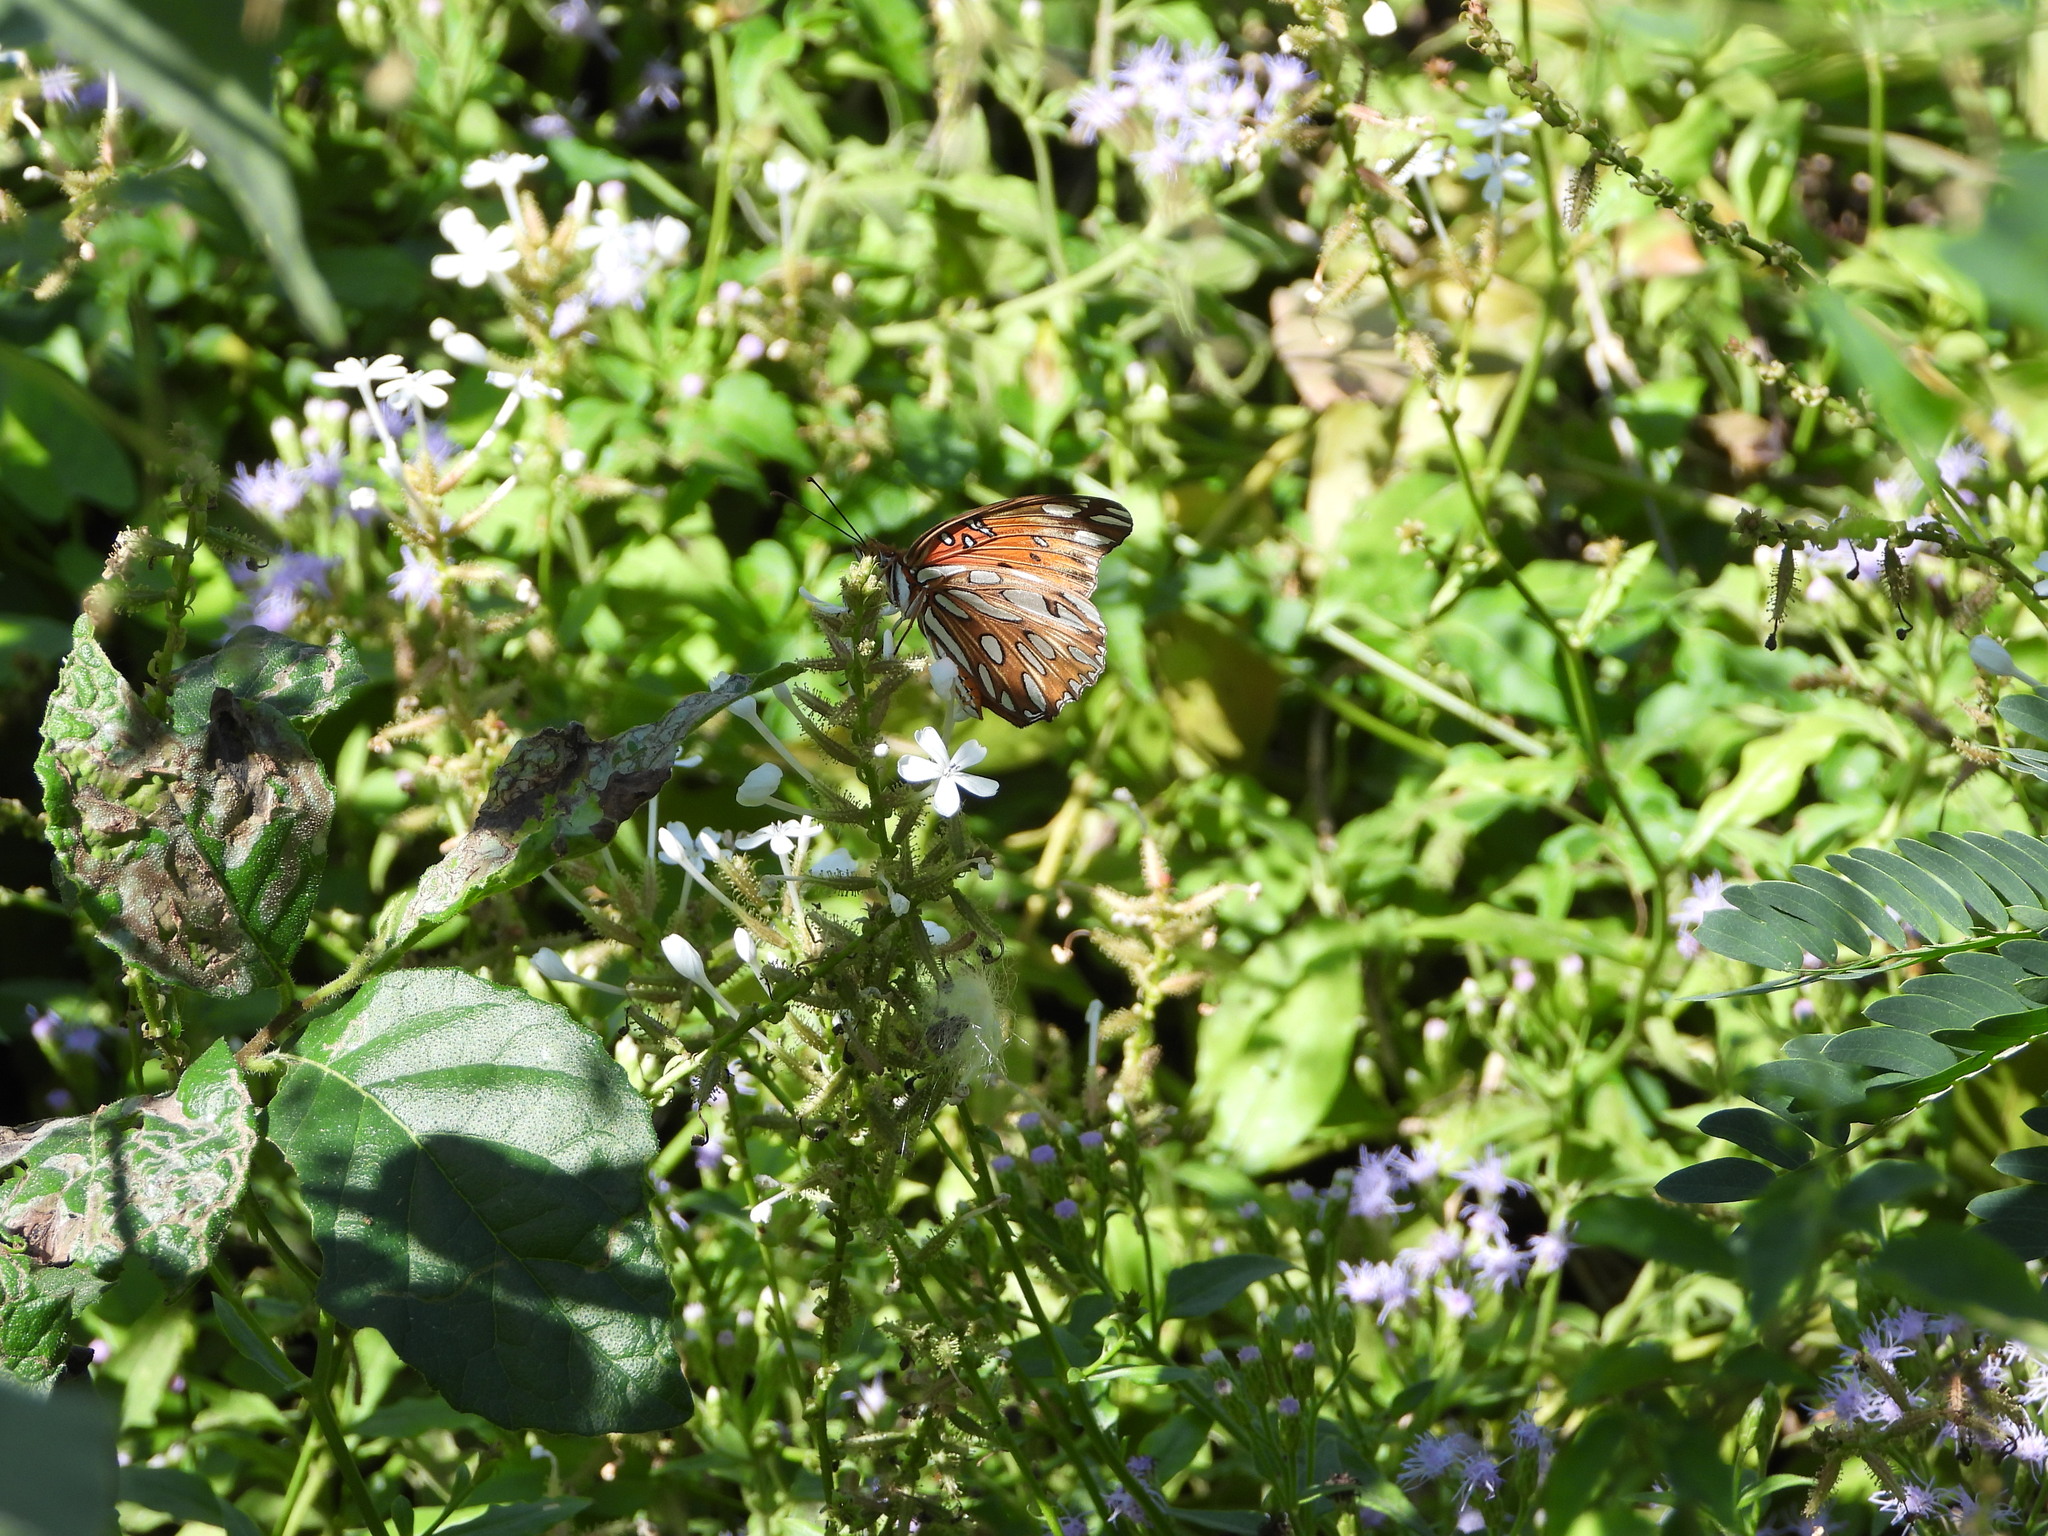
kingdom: Animalia
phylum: Arthropoda
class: Insecta
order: Lepidoptera
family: Nymphalidae
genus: Dione
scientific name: Dione vanillae
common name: Gulf fritillary
